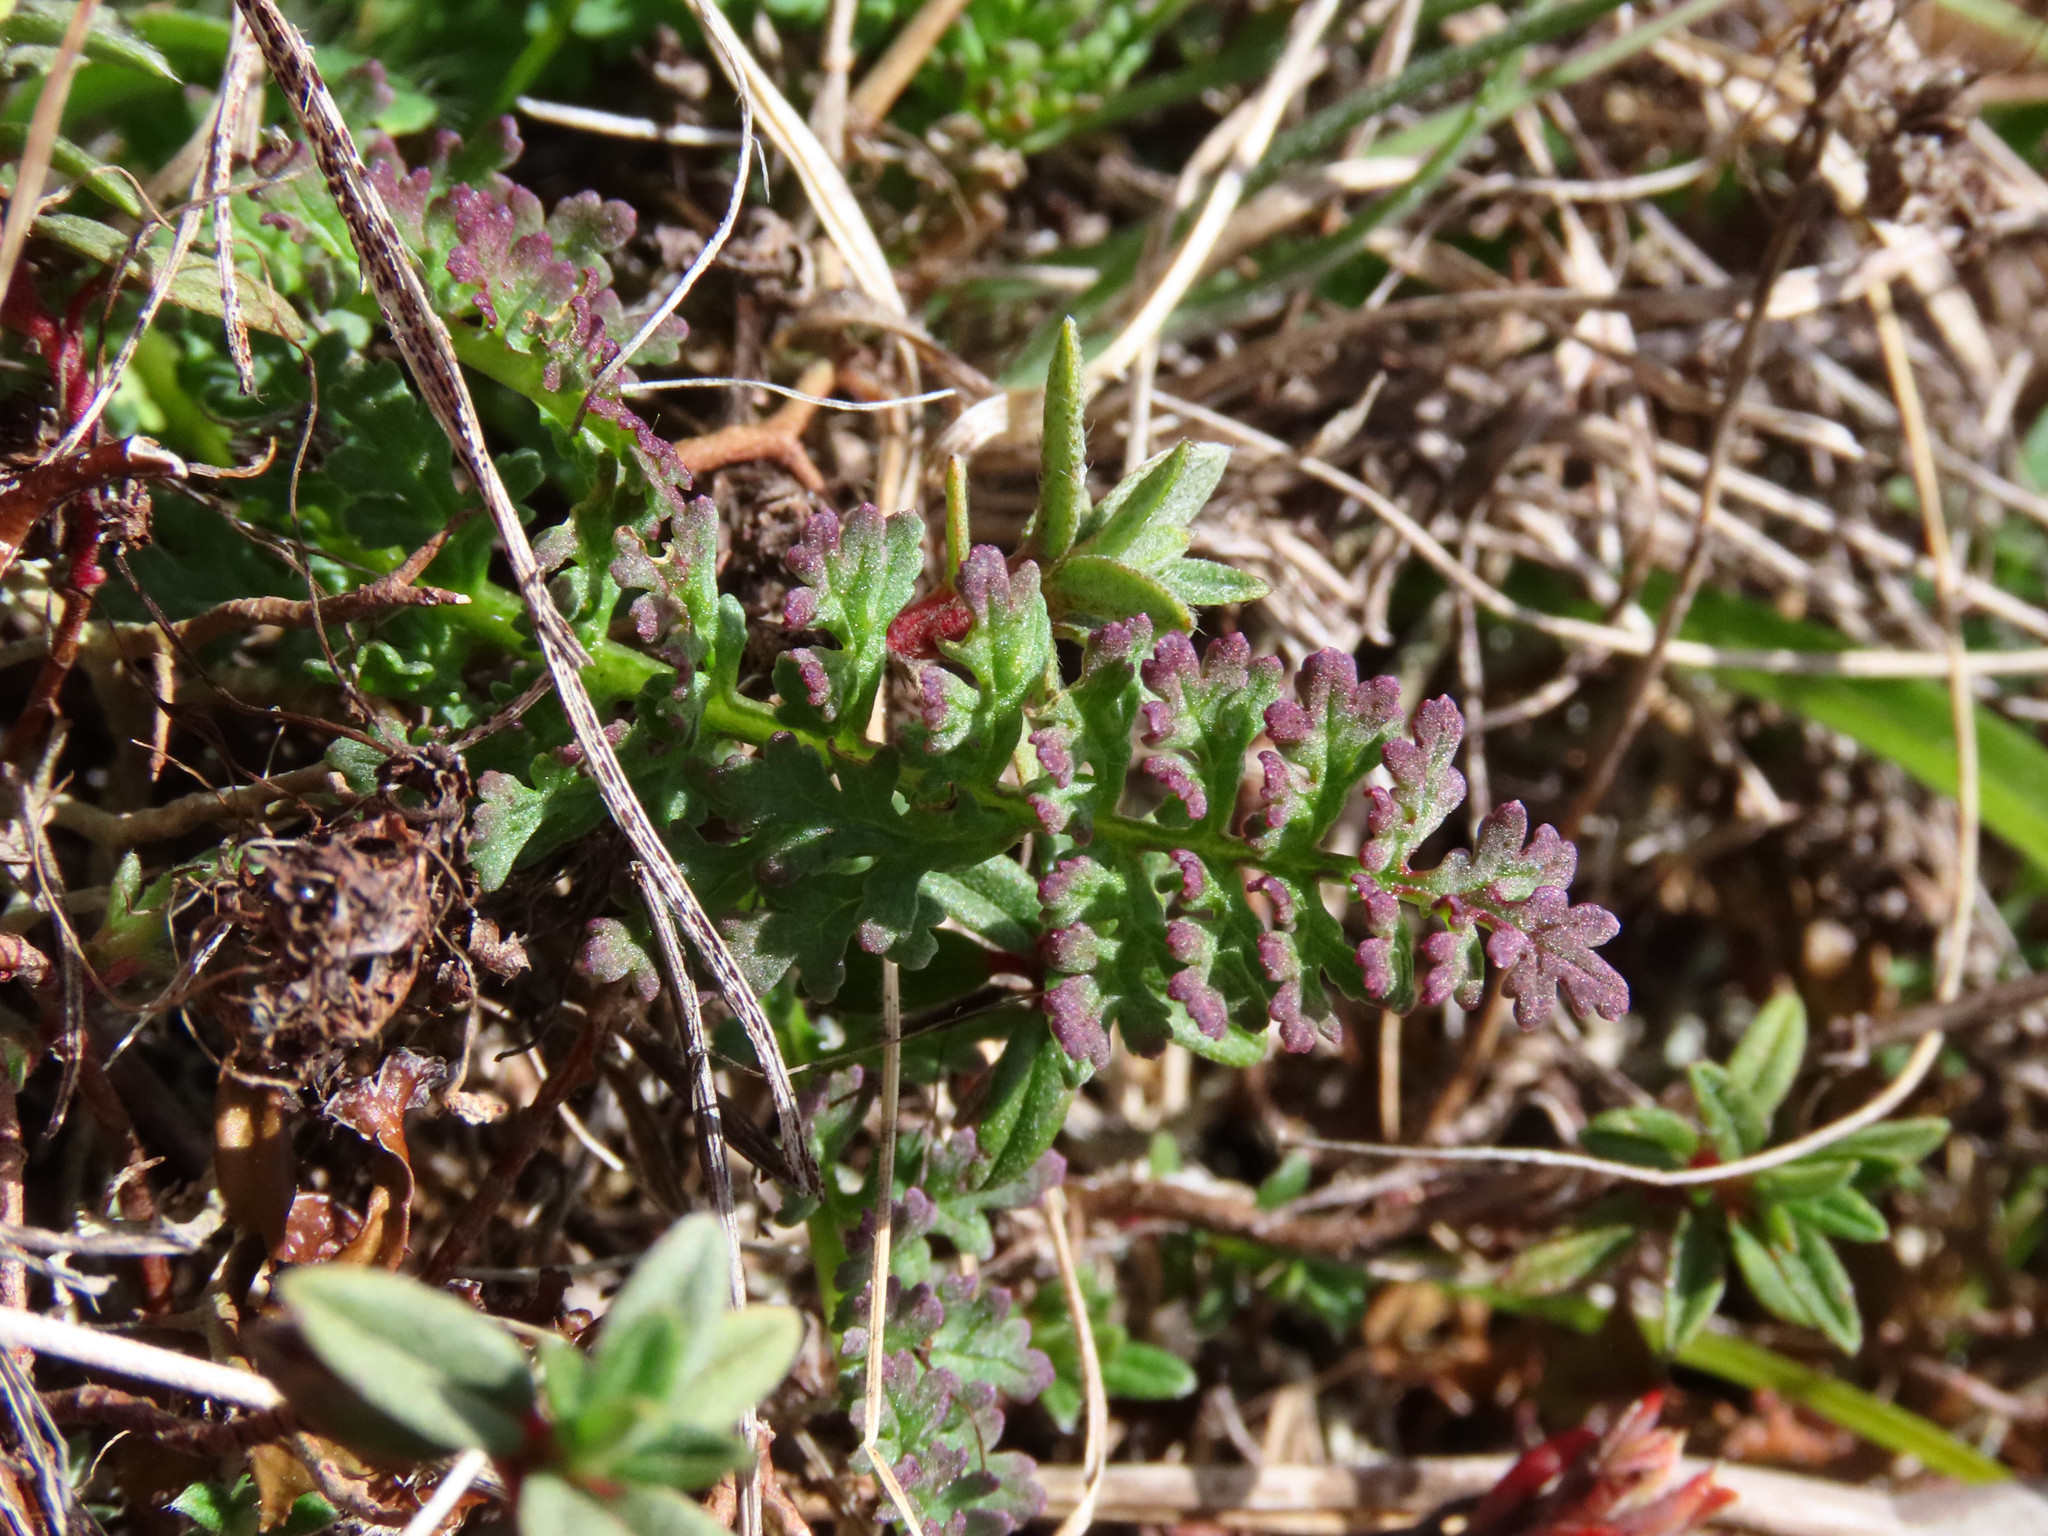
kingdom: Plantae
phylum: Tracheophyta
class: Magnoliopsida
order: Lamiales
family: Orobanchaceae
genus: Pedicularis
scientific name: Pedicularis elegans
